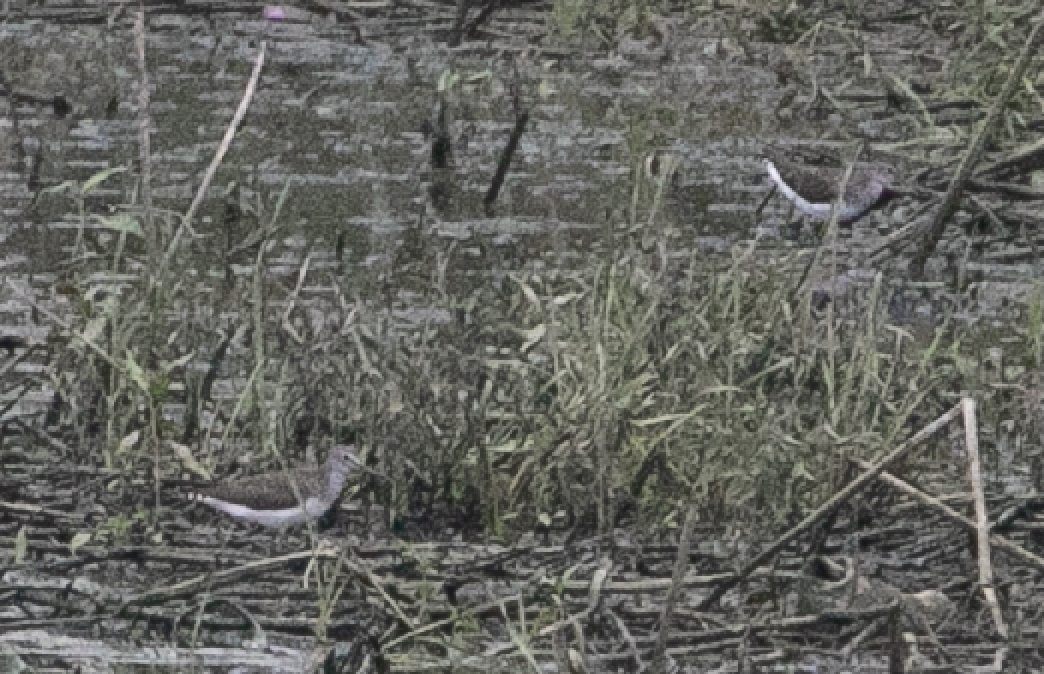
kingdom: Animalia
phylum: Chordata
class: Aves
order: Charadriiformes
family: Scolopacidae
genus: Tringa
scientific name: Tringa ochropus
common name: Green sandpiper
